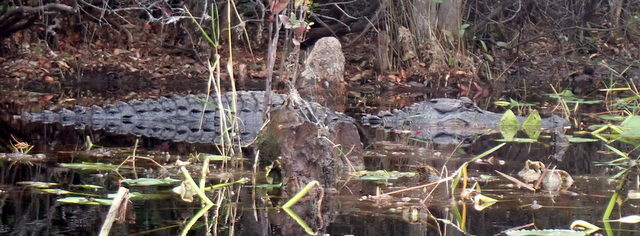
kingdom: Animalia
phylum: Chordata
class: Crocodylia
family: Alligatoridae
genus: Alligator
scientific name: Alligator mississippiensis
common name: American alligator
